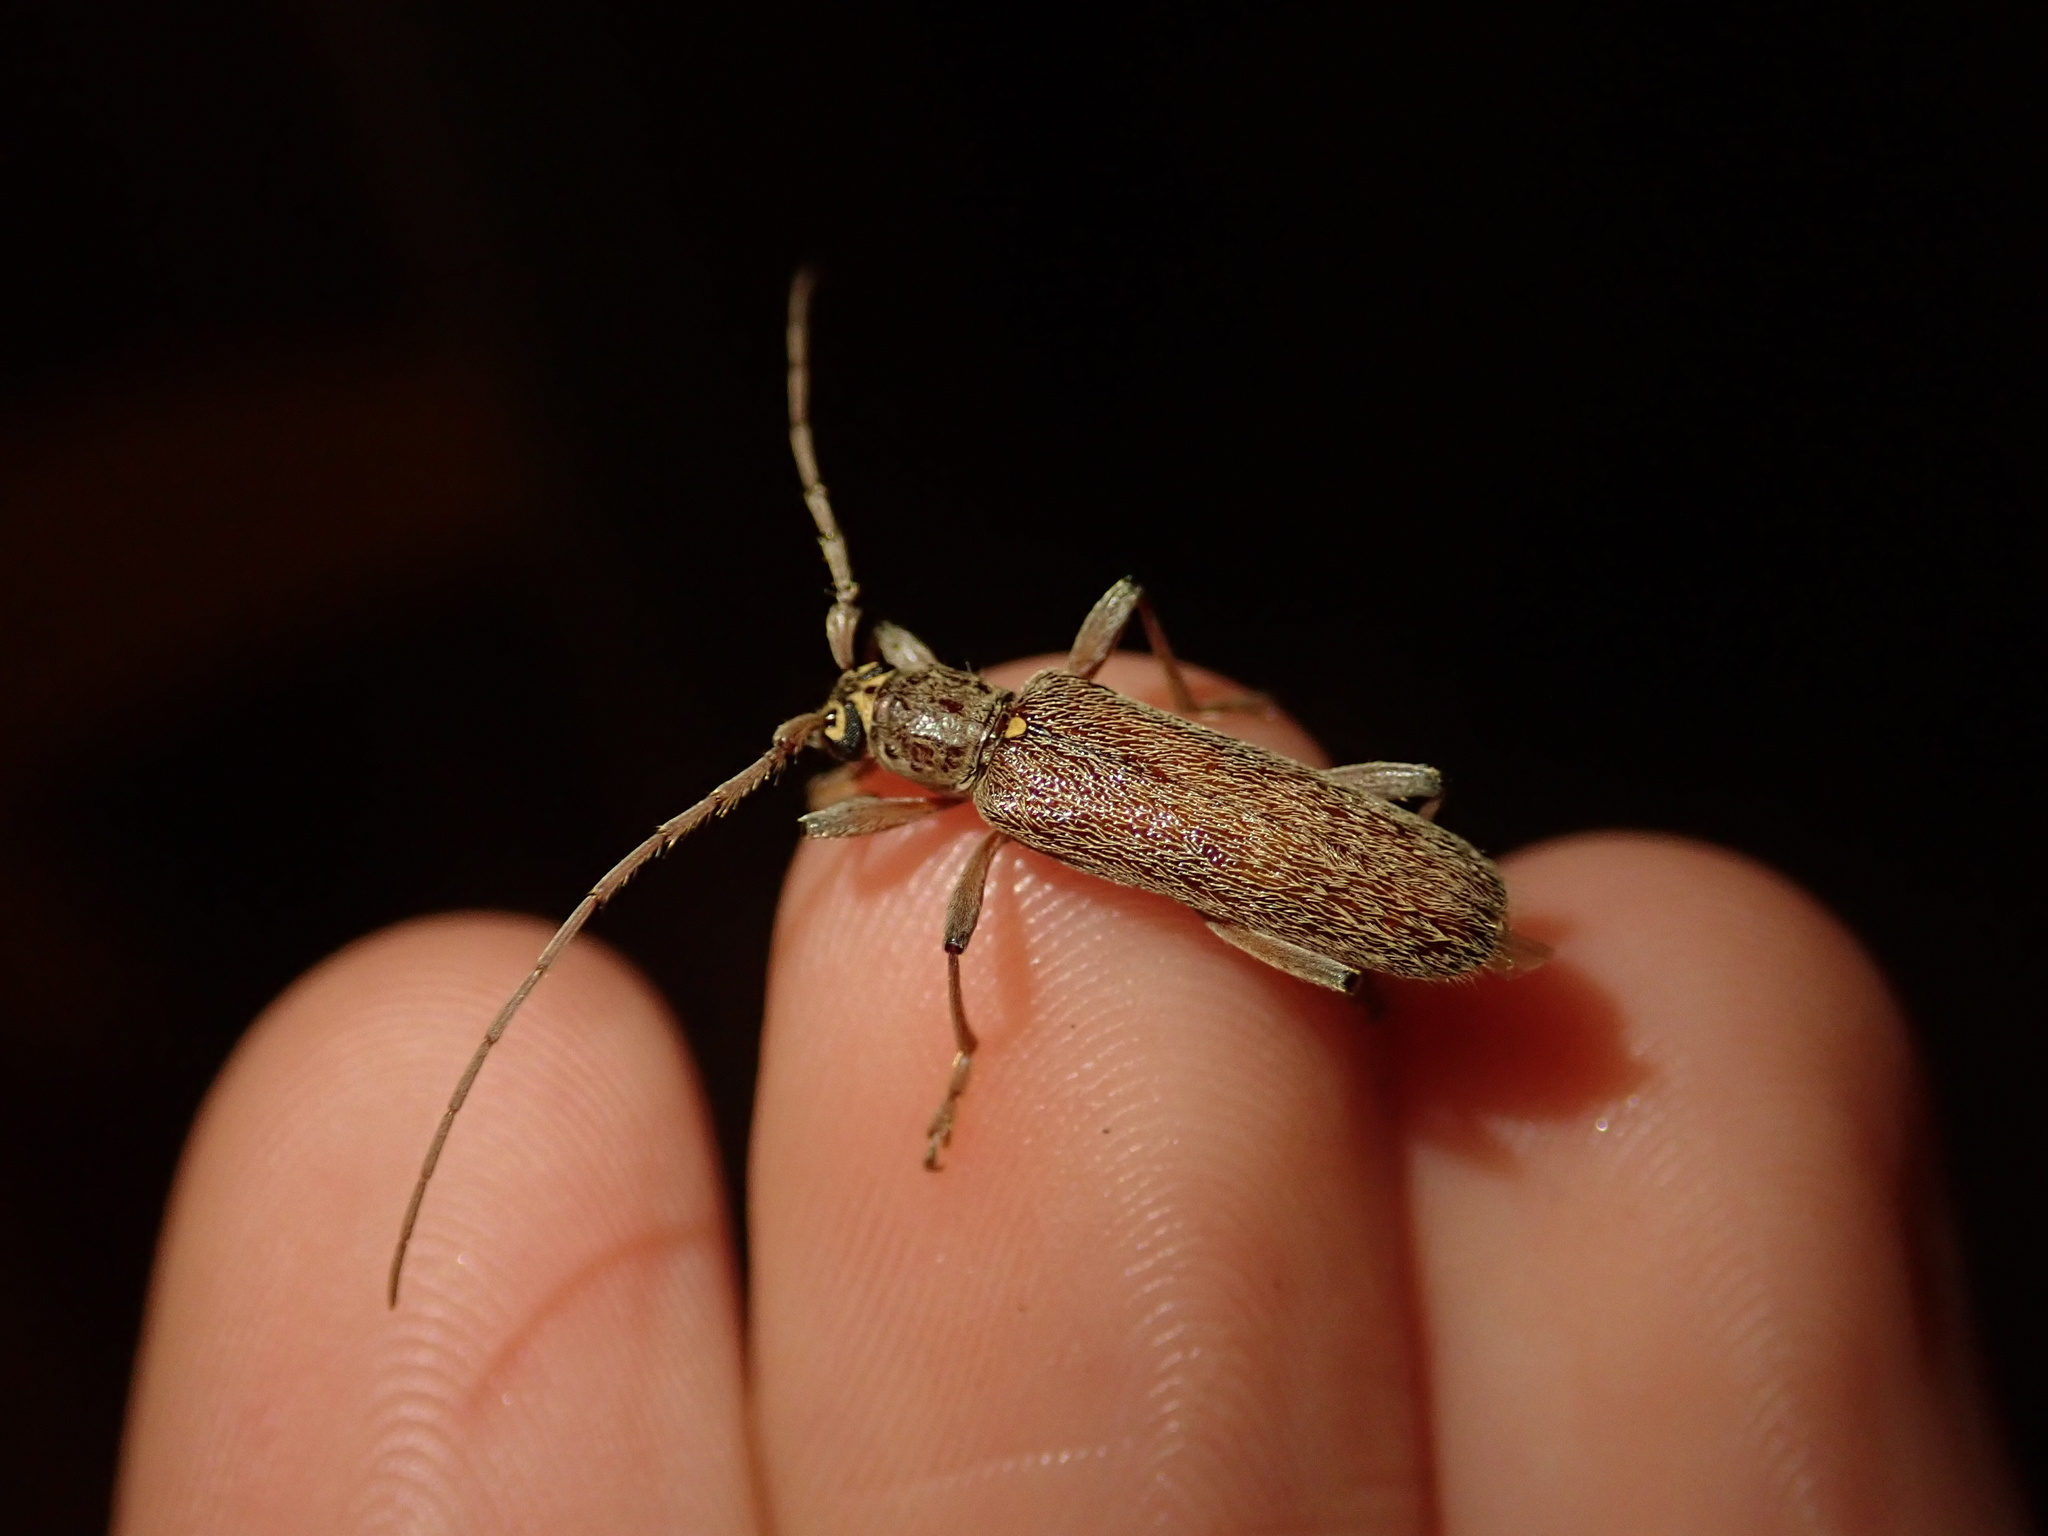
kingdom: Animalia
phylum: Arthropoda
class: Insecta
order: Coleoptera
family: Cerambycidae
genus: Oemona
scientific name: Oemona hirta
